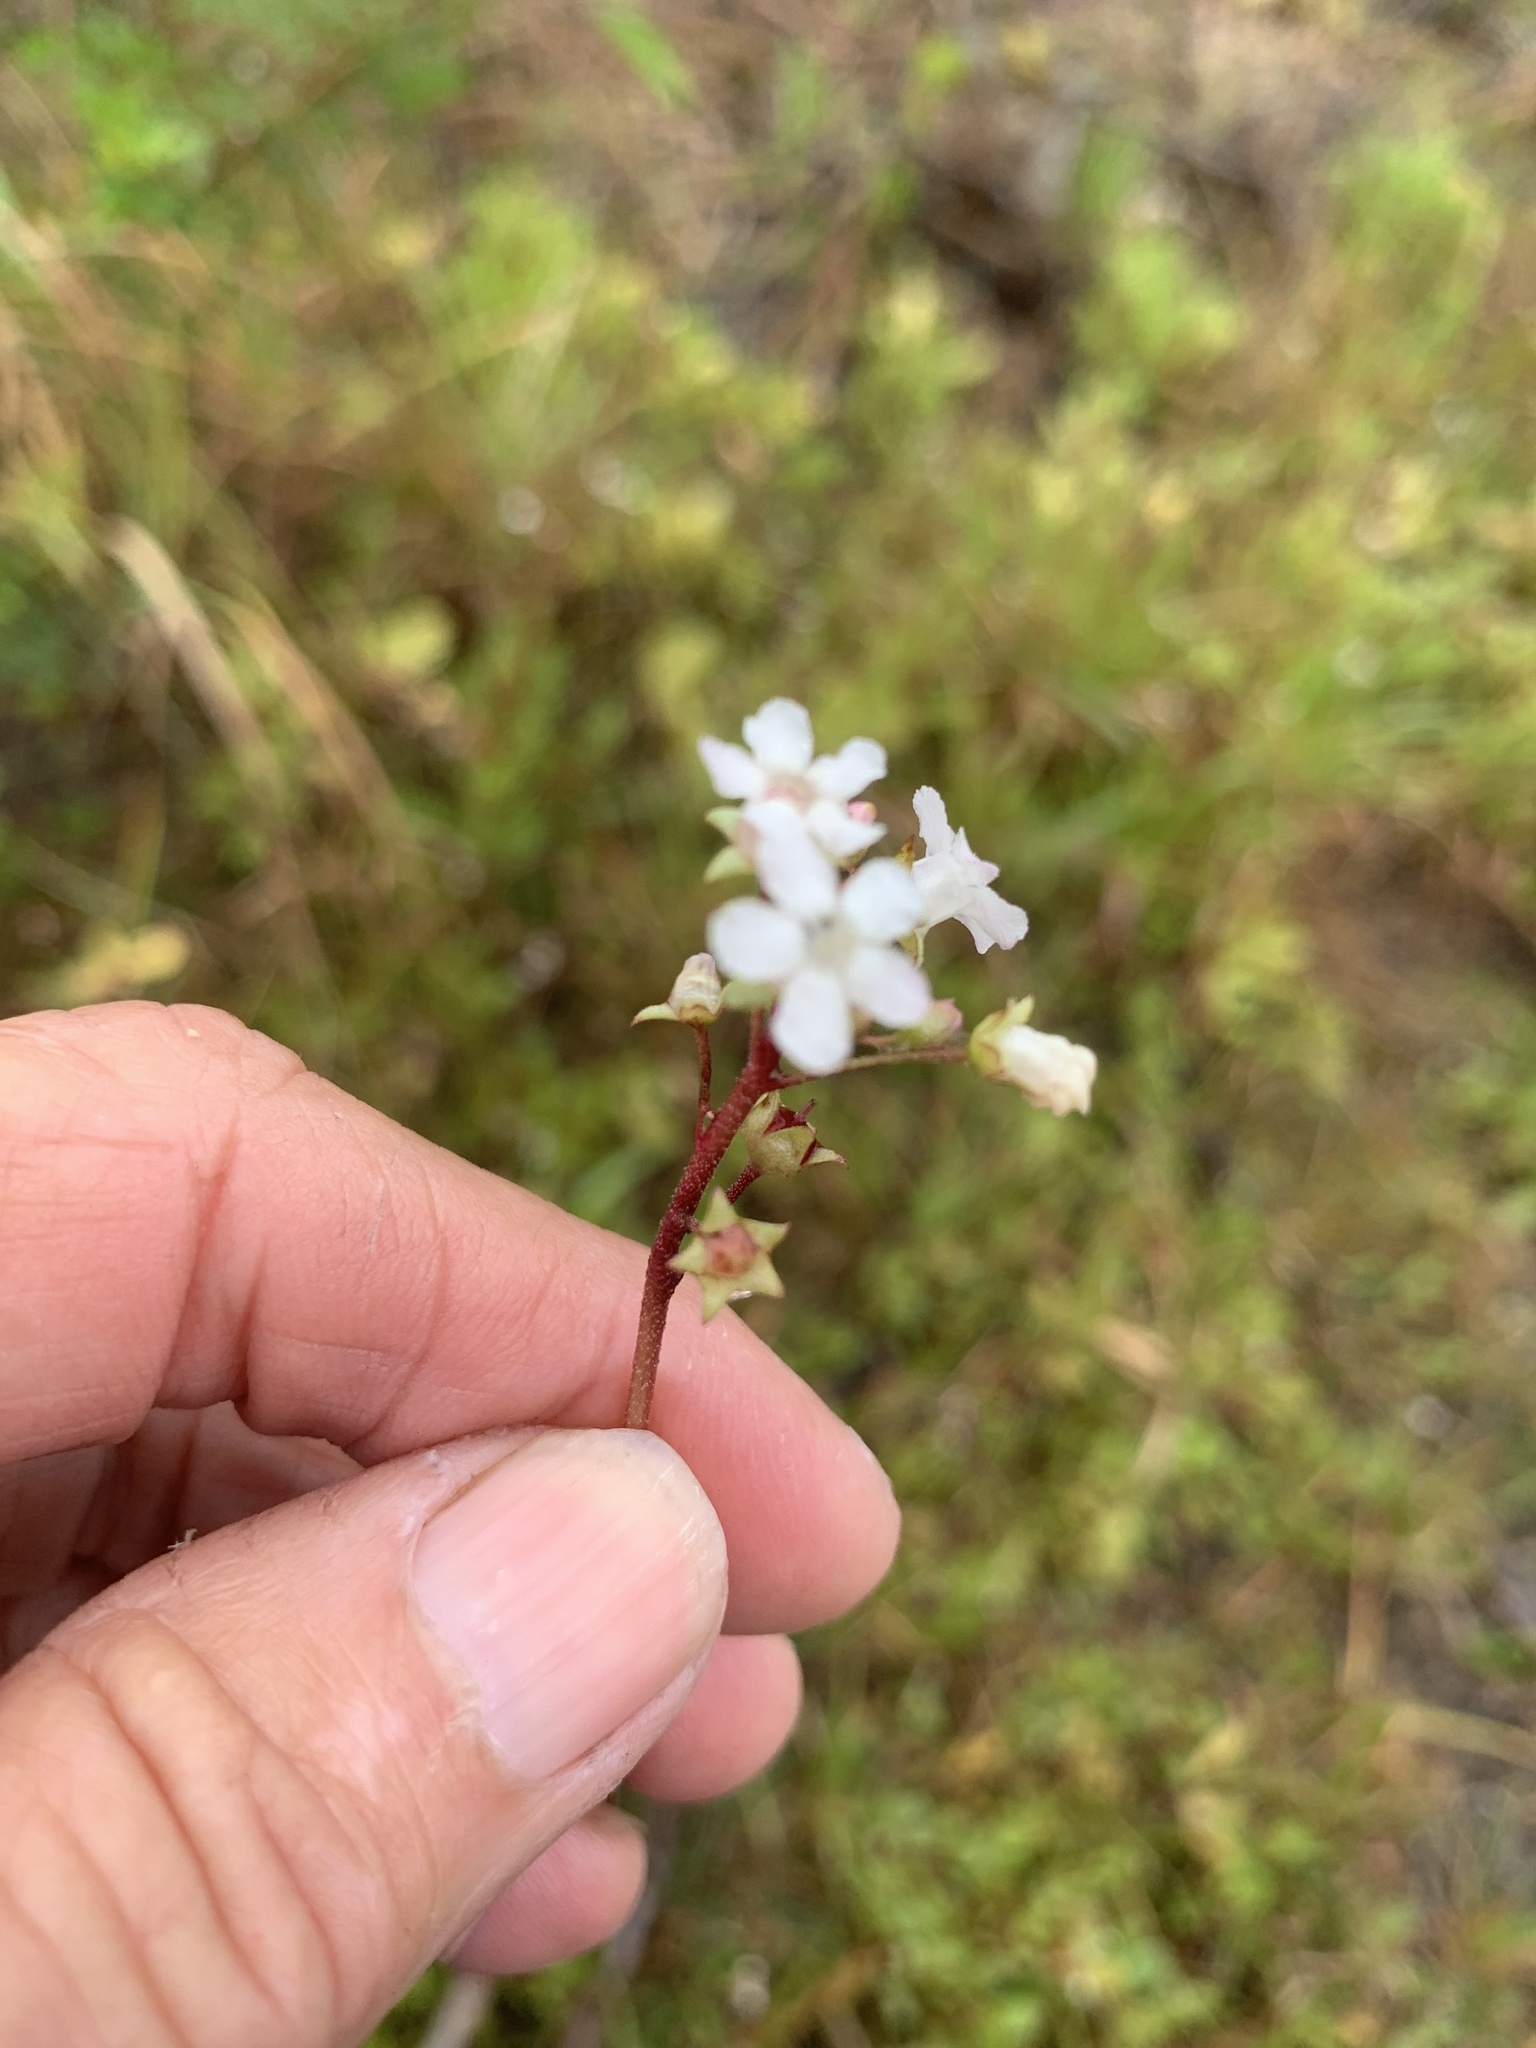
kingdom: Plantae
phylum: Tracheophyta
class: Magnoliopsida
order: Ericales
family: Primulaceae
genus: Samolus
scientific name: Samolus ebracteatus
